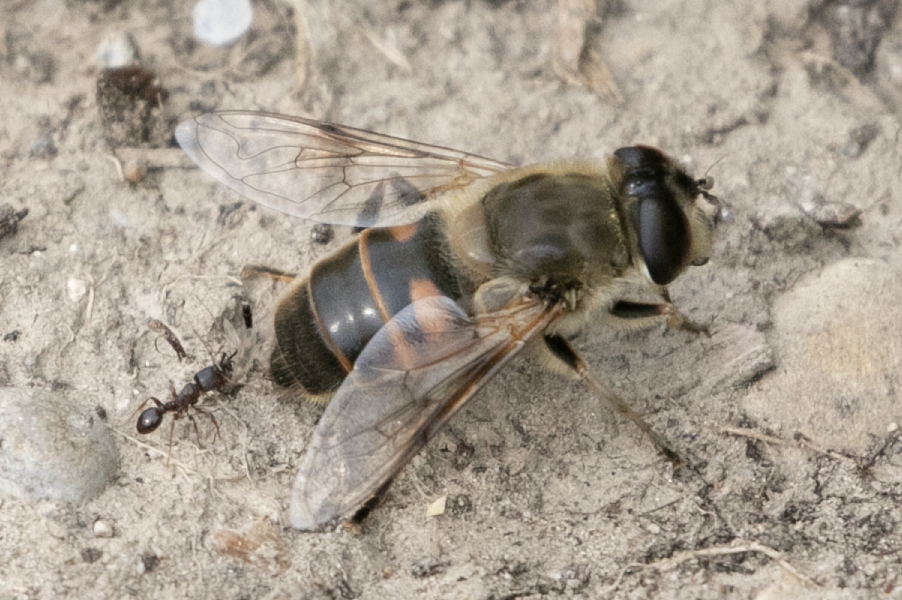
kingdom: Animalia
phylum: Arthropoda
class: Insecta
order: Diptera
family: Syrphidae
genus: Eristalis
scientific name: Eristalis tenax
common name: Drone fly
